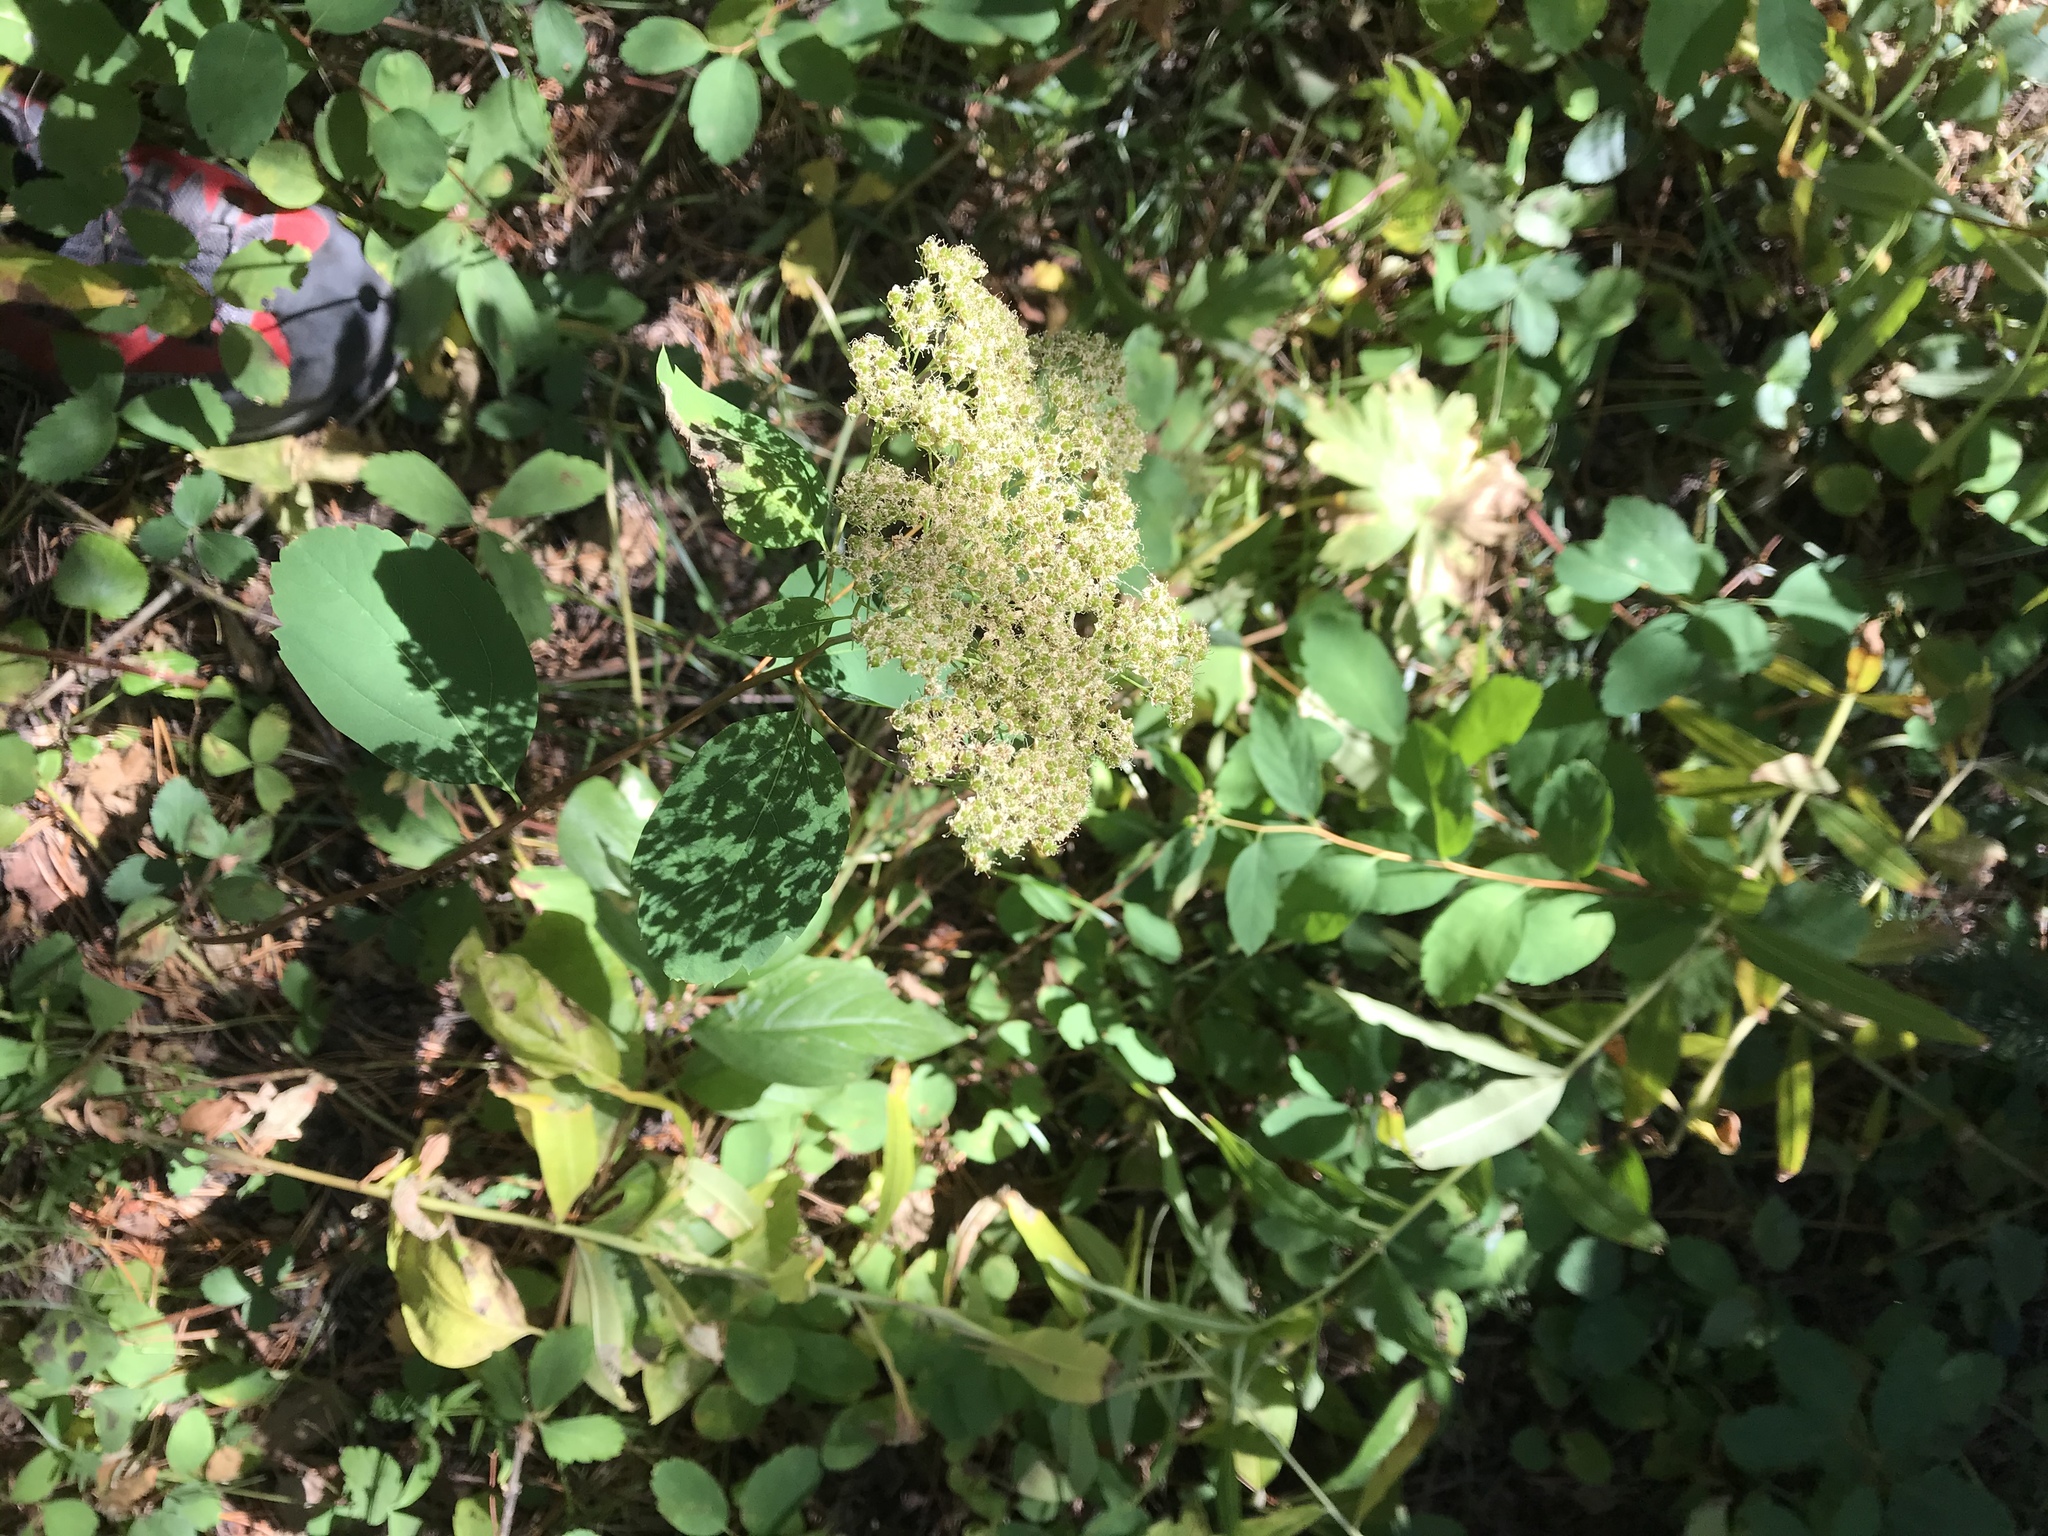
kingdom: Plantae
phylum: Tracheophyta
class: Magnoliopsida
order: Rosales
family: Rosaceae
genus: Spiraea
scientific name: Spiraea lucida
